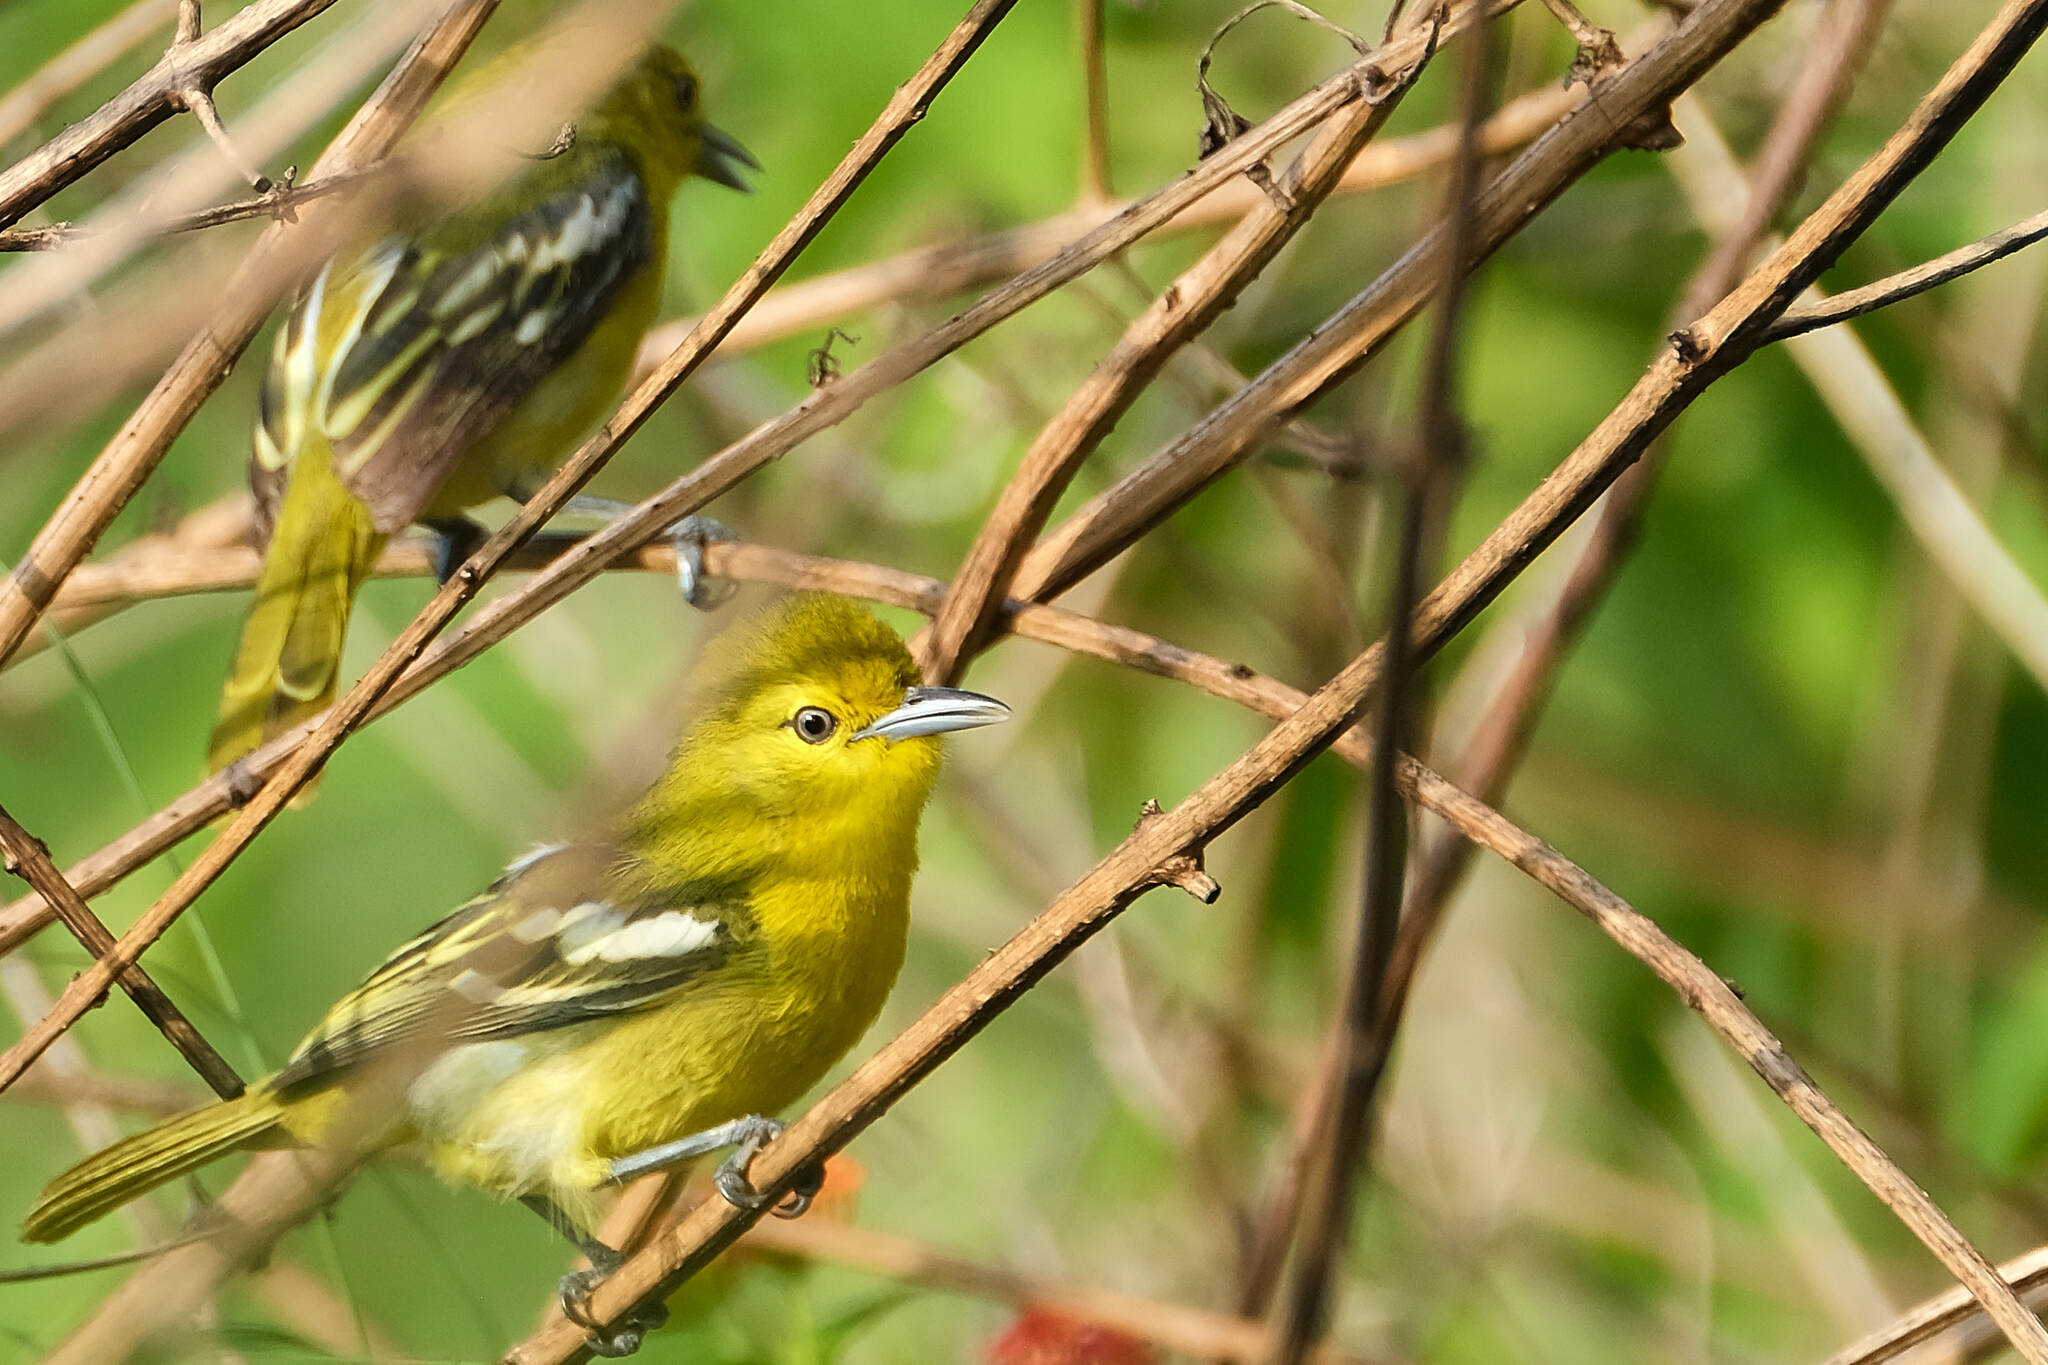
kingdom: Animalia
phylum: Chordata
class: Aves
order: Passeriformes
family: Aegithinidae
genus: Aegithina
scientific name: Aegithina tiphia
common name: Common iora
